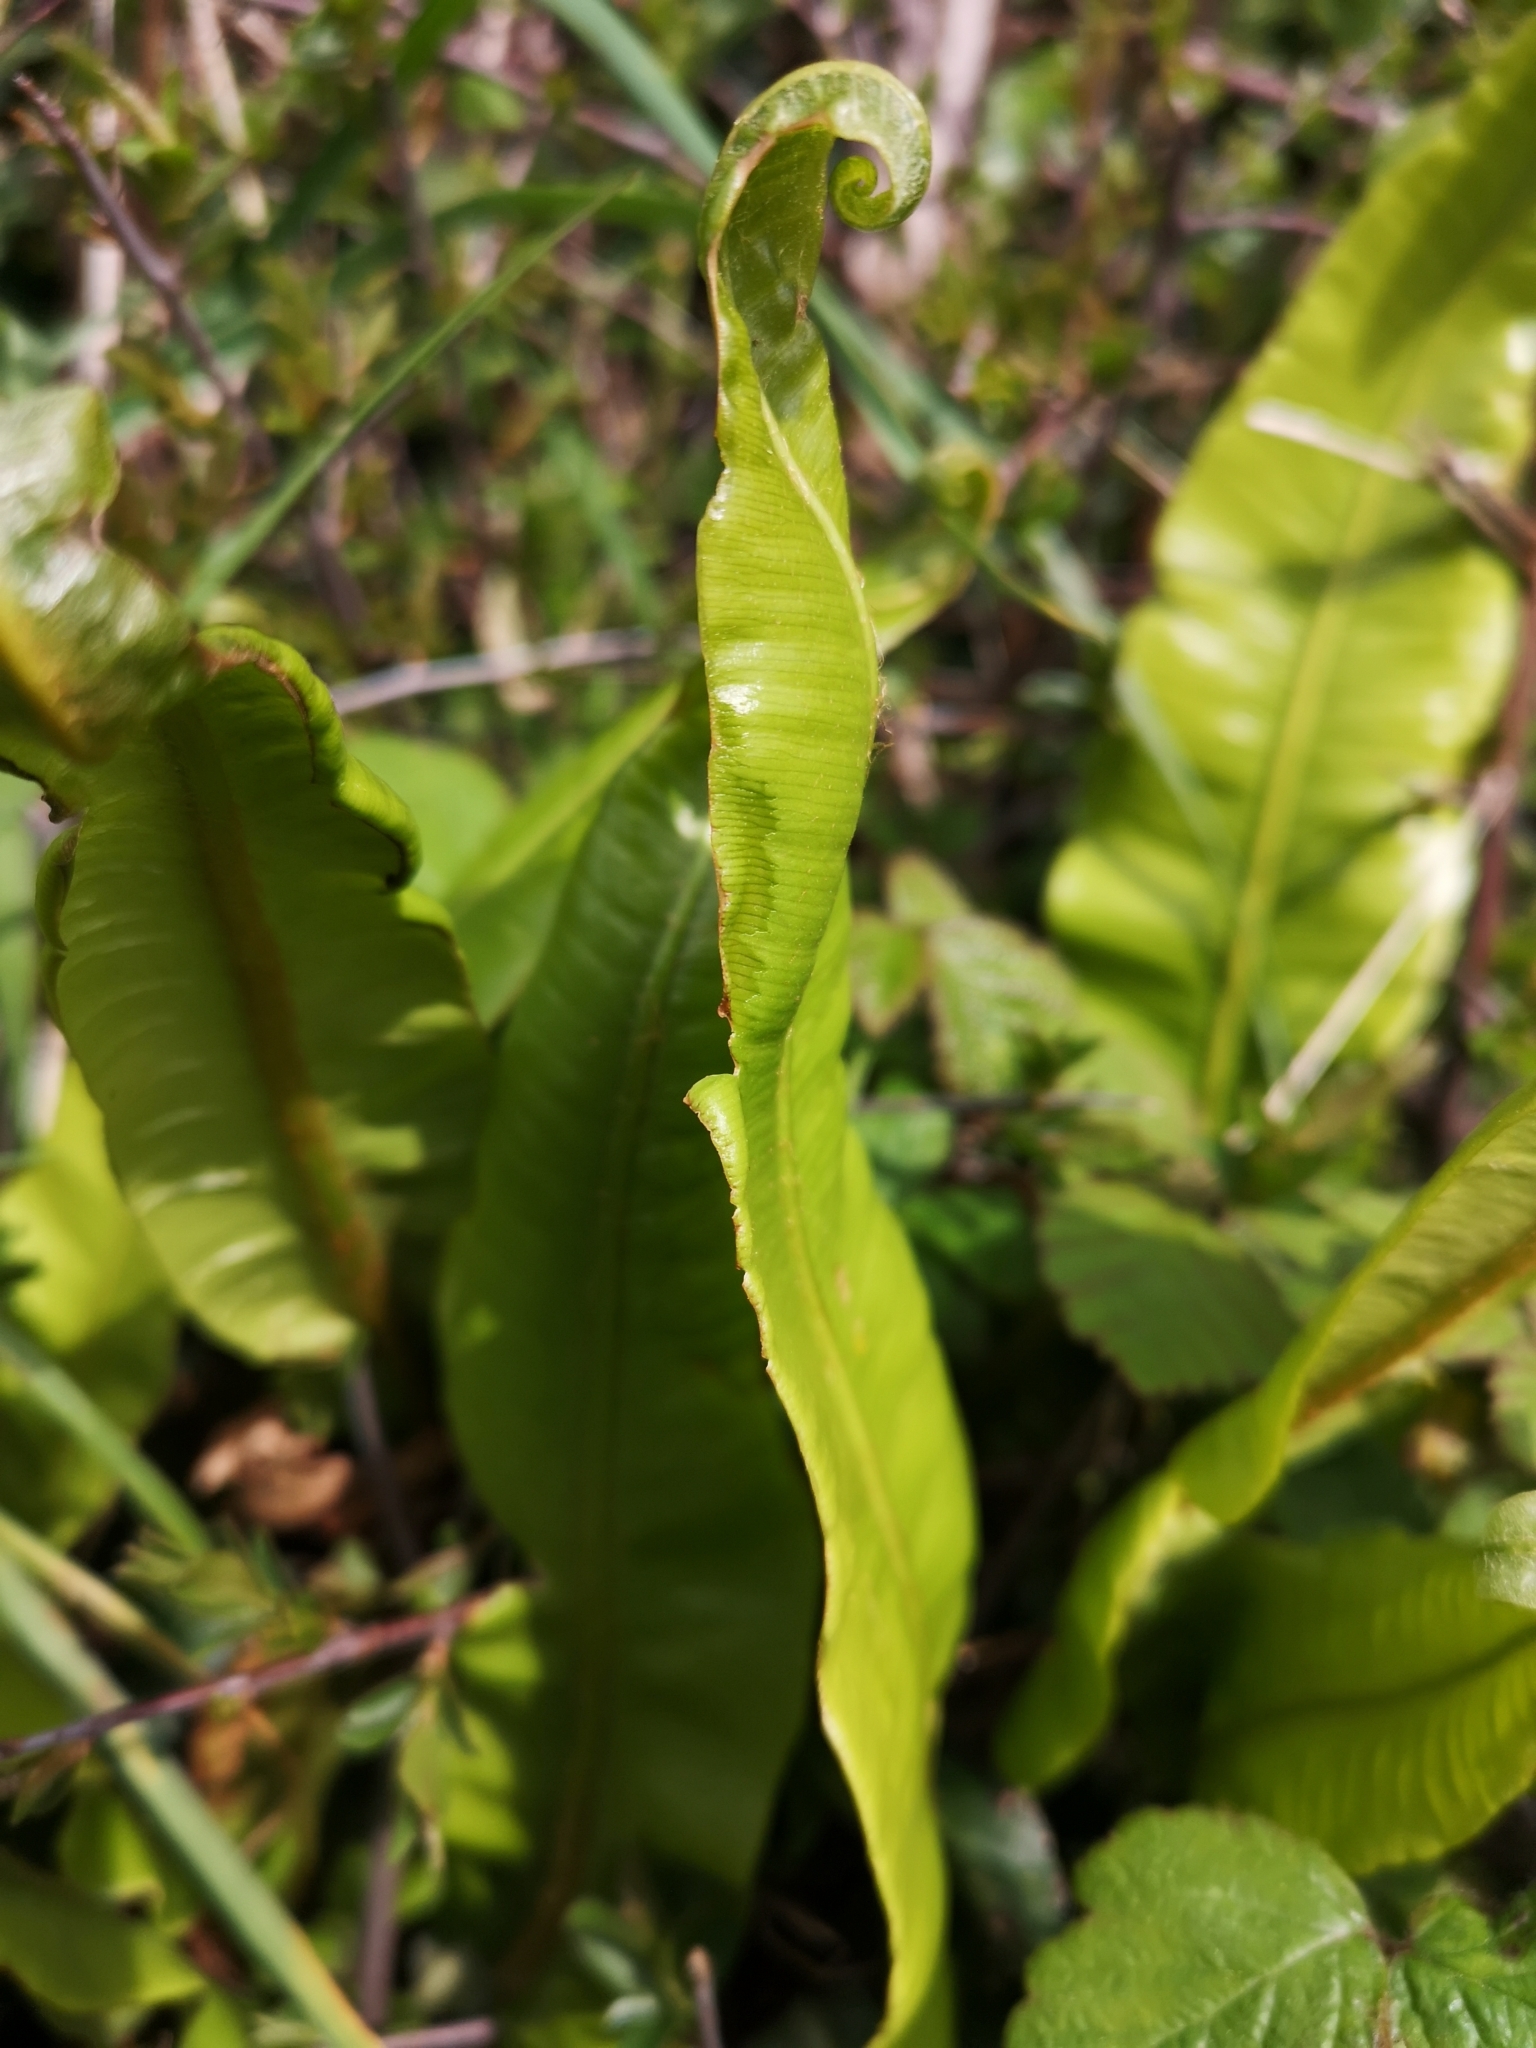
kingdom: Plantae
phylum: Tracheophyta
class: Polypodiopsida
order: Polypodiales
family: Aspleniaceae
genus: Asplenium
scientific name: Asplenium scolopendrium
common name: Hart's-tongue fern
